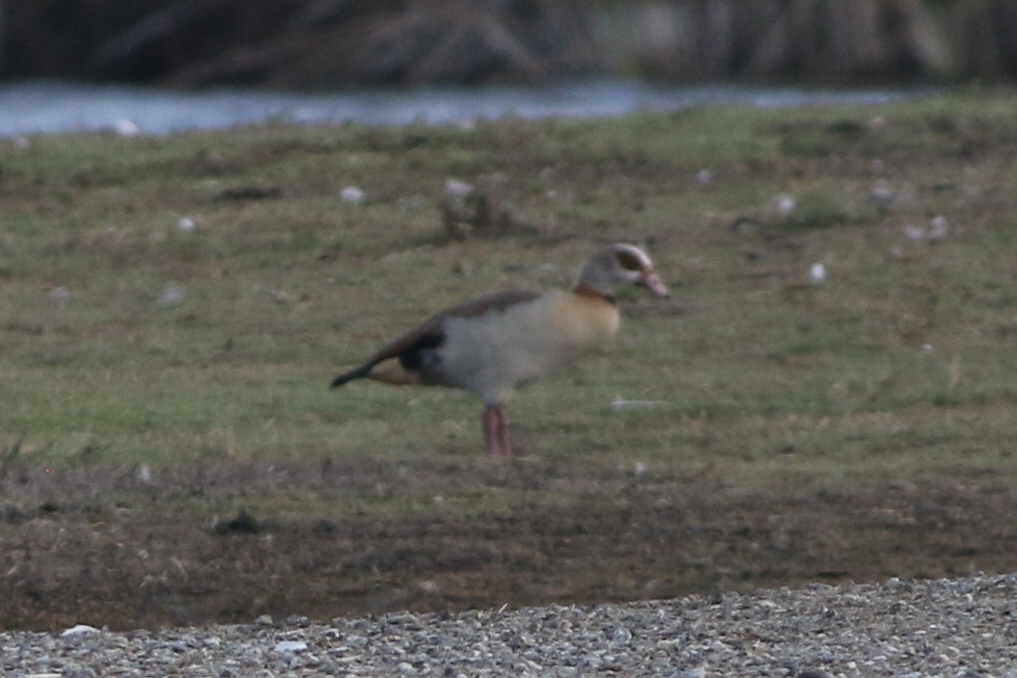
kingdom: Animalia
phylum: Chordata
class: Aves
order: Anseriformes
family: Anatidae
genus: Alopochen
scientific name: Alopochen aegyptiaca
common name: Egyptian goose
